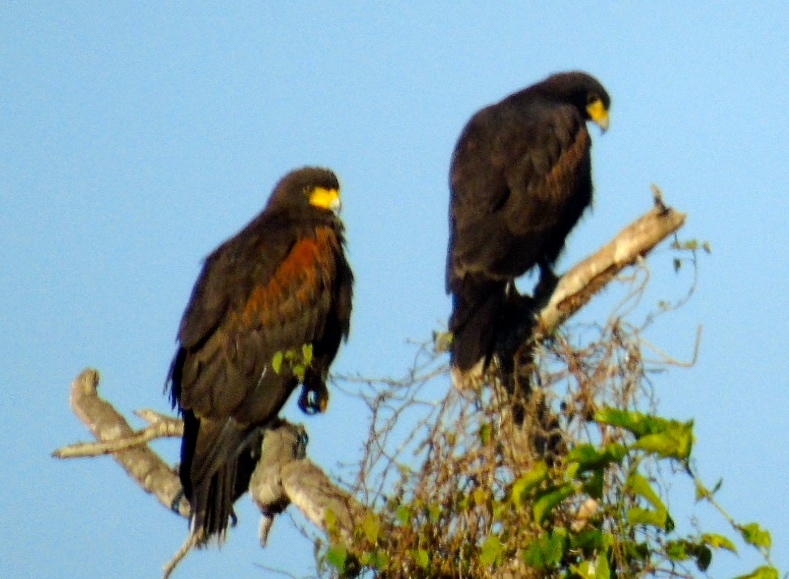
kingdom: Animalia
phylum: Chordata
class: Aves
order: Accipitriformes
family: Accipitridae
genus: Parabuteo
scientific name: Parabuteo unicinctus
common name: Harris's hawk
